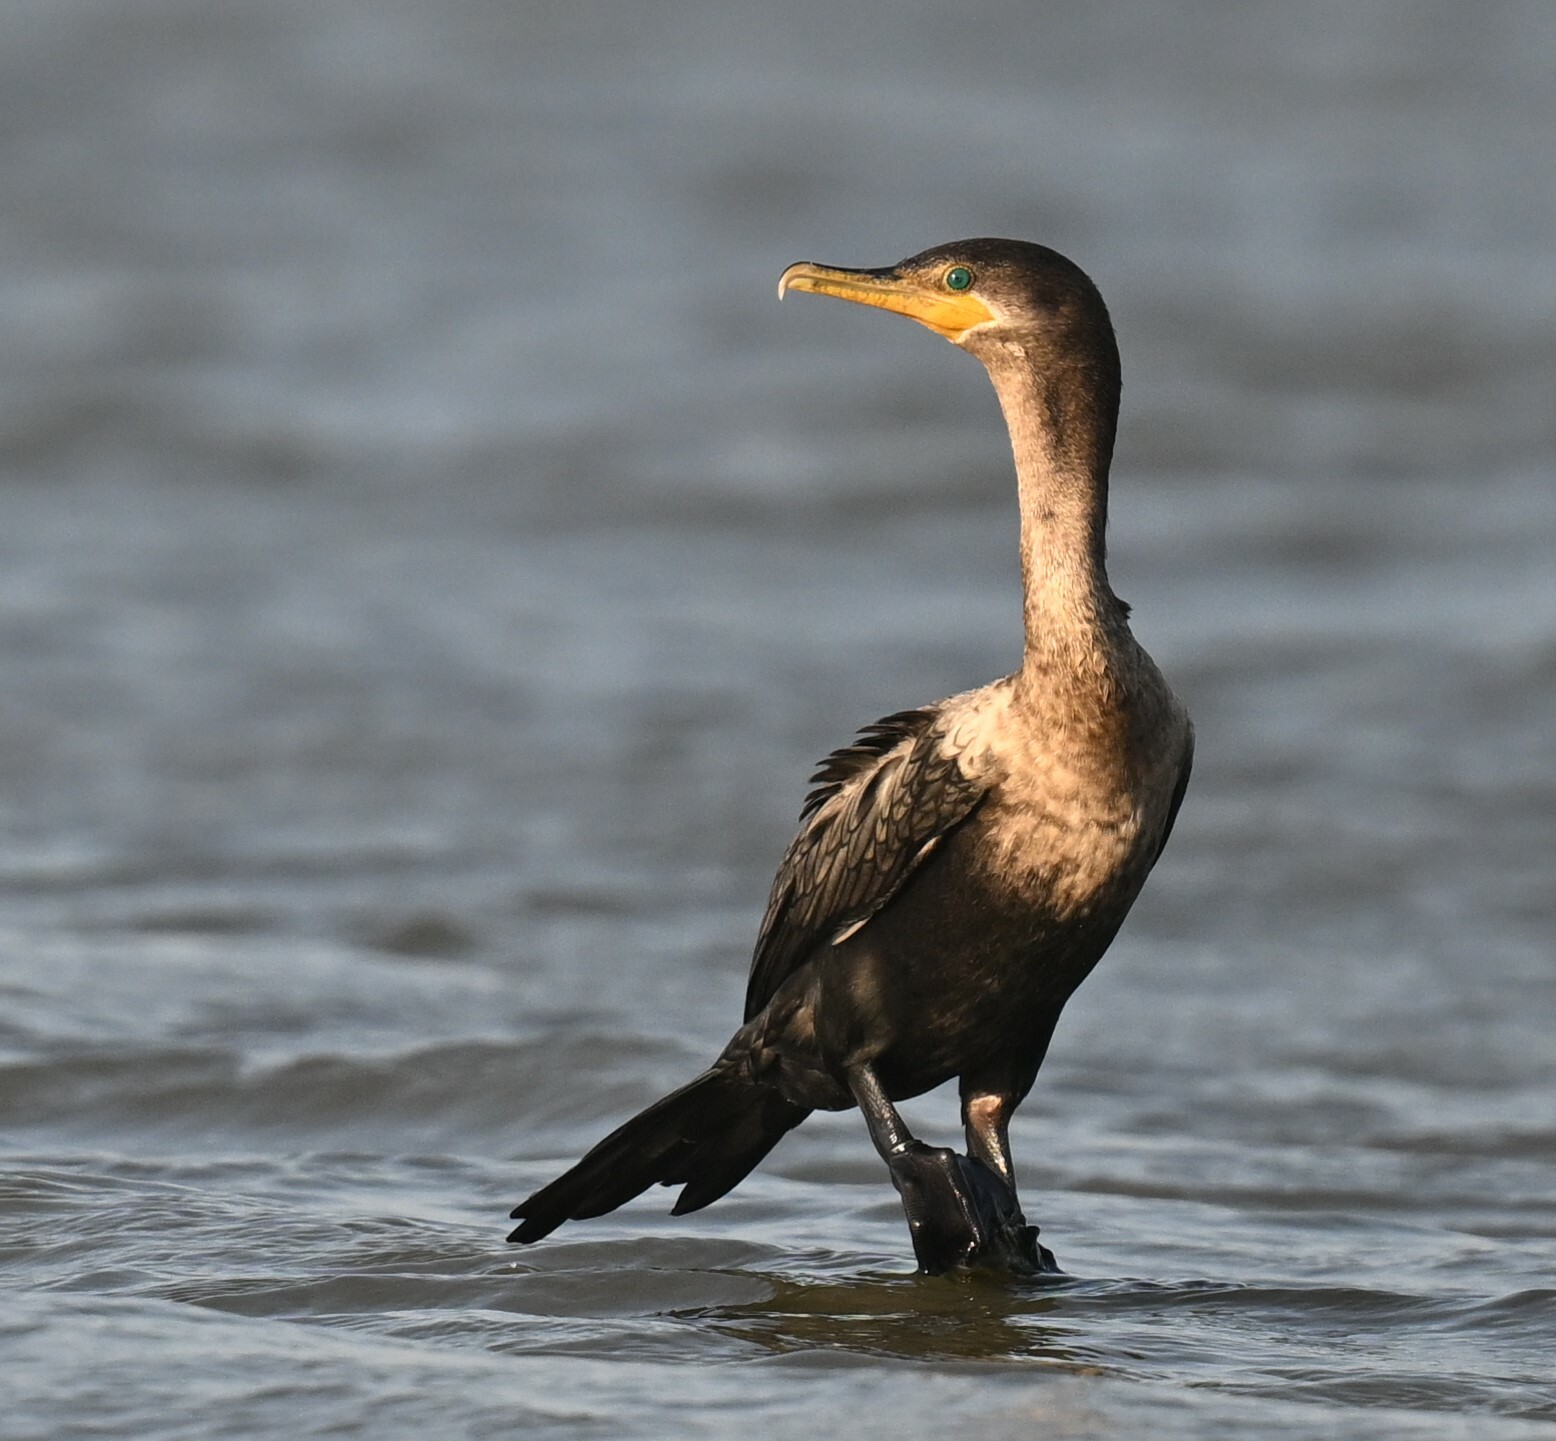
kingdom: Animalia
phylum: Chordata
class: Aves
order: Suliformes
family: Phalacrocoracidae
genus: Phalacrocorax
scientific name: Phalacrocorax brasilianus
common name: Neotropic cormorant
